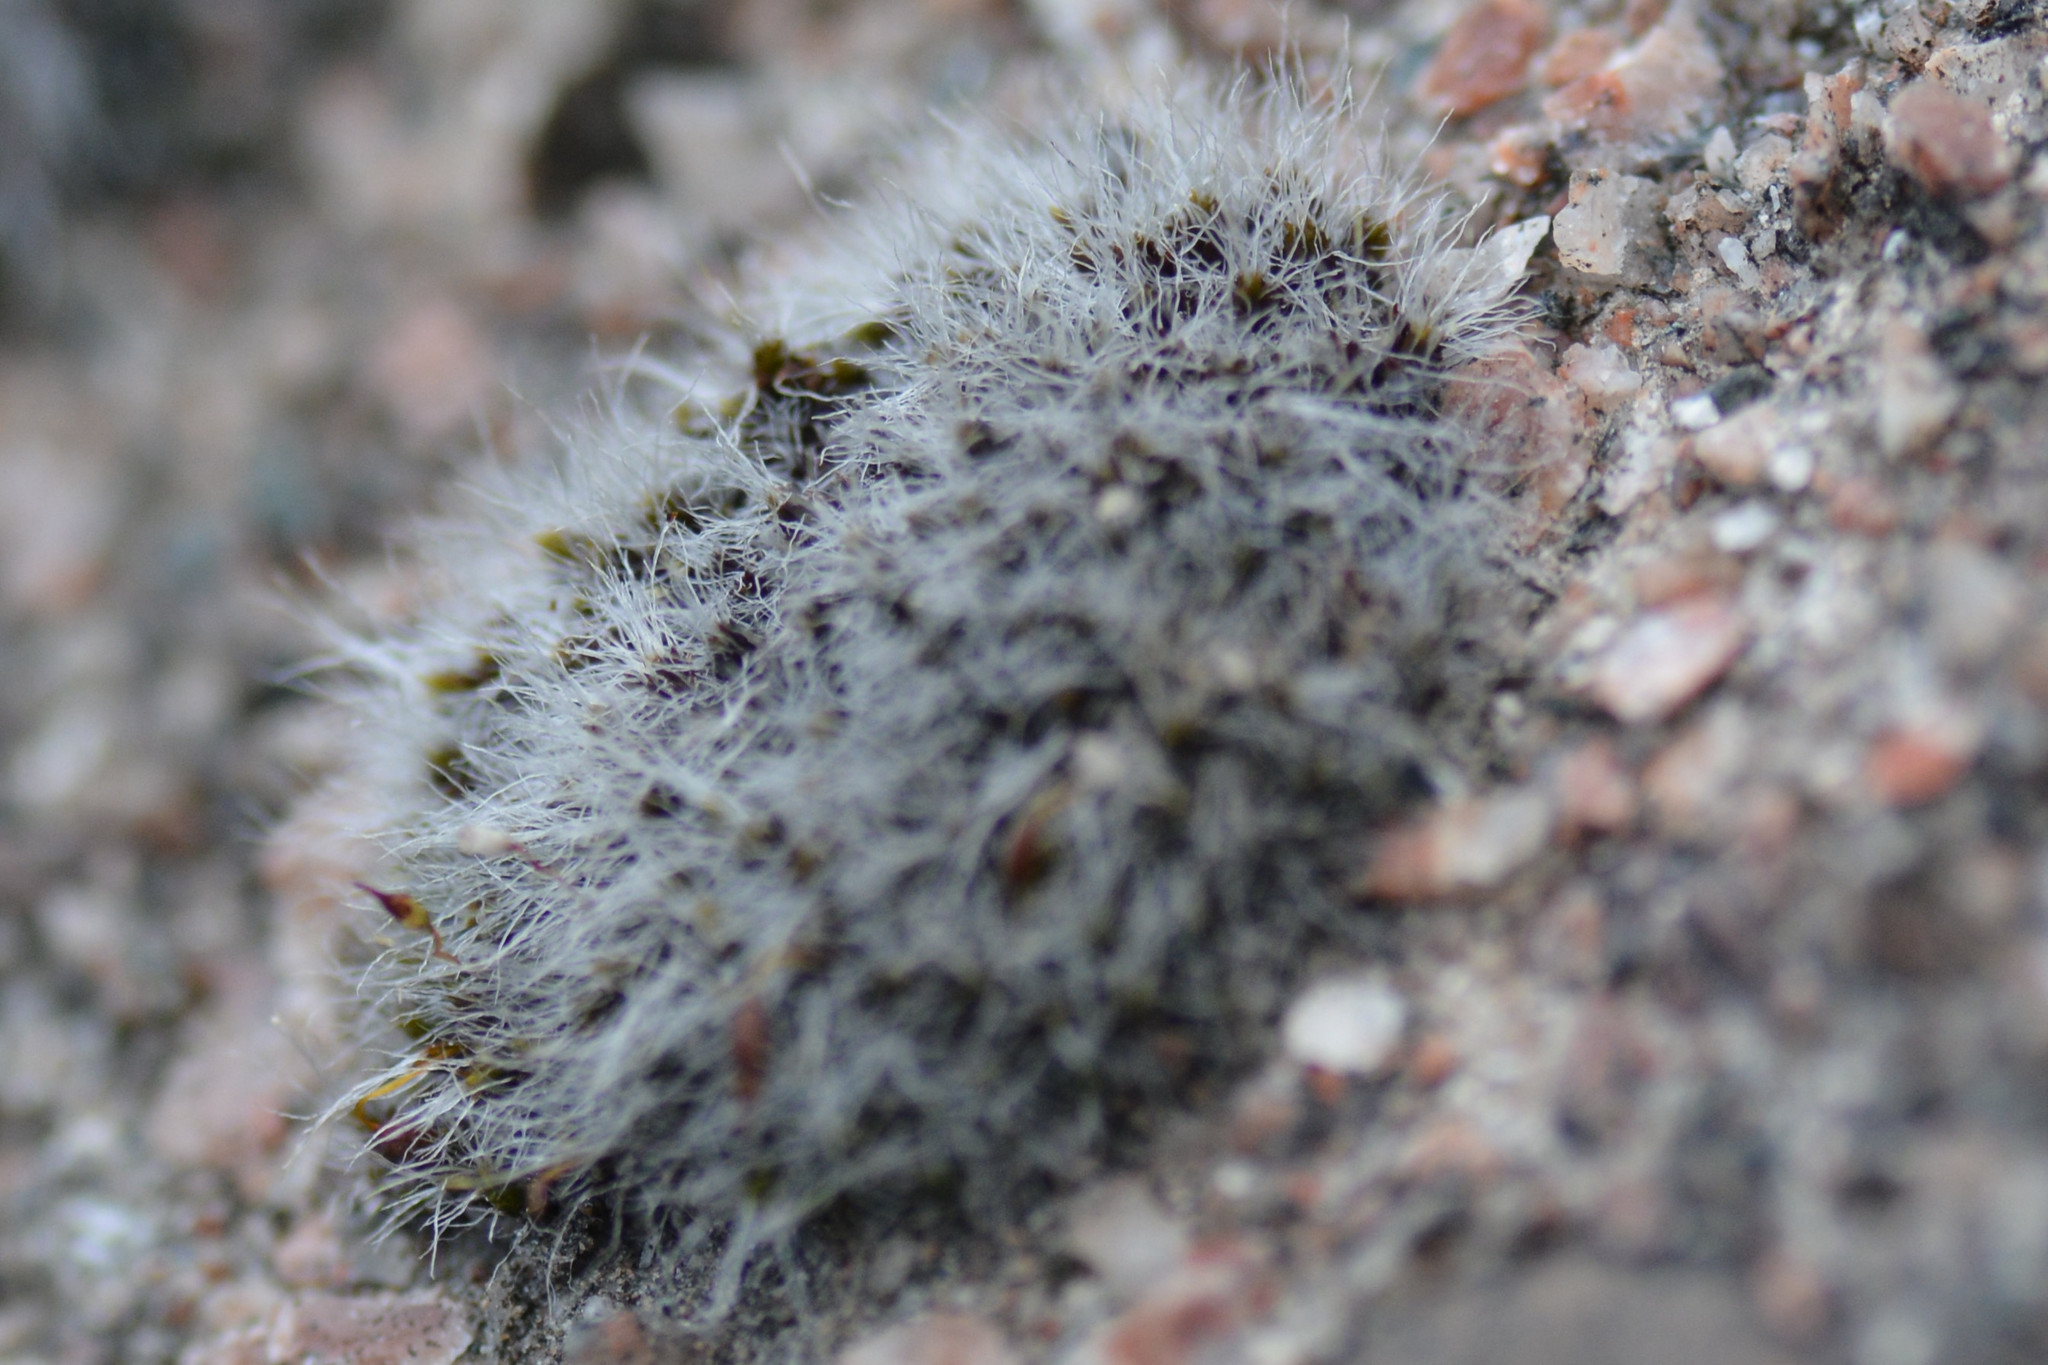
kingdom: Plantae
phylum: Bryophyta
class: Bryopsida
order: Grimmiales
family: Grimmiaceae
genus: Grimmia
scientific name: Grimmia pulvinata
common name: Grey-cushioned grimmia
